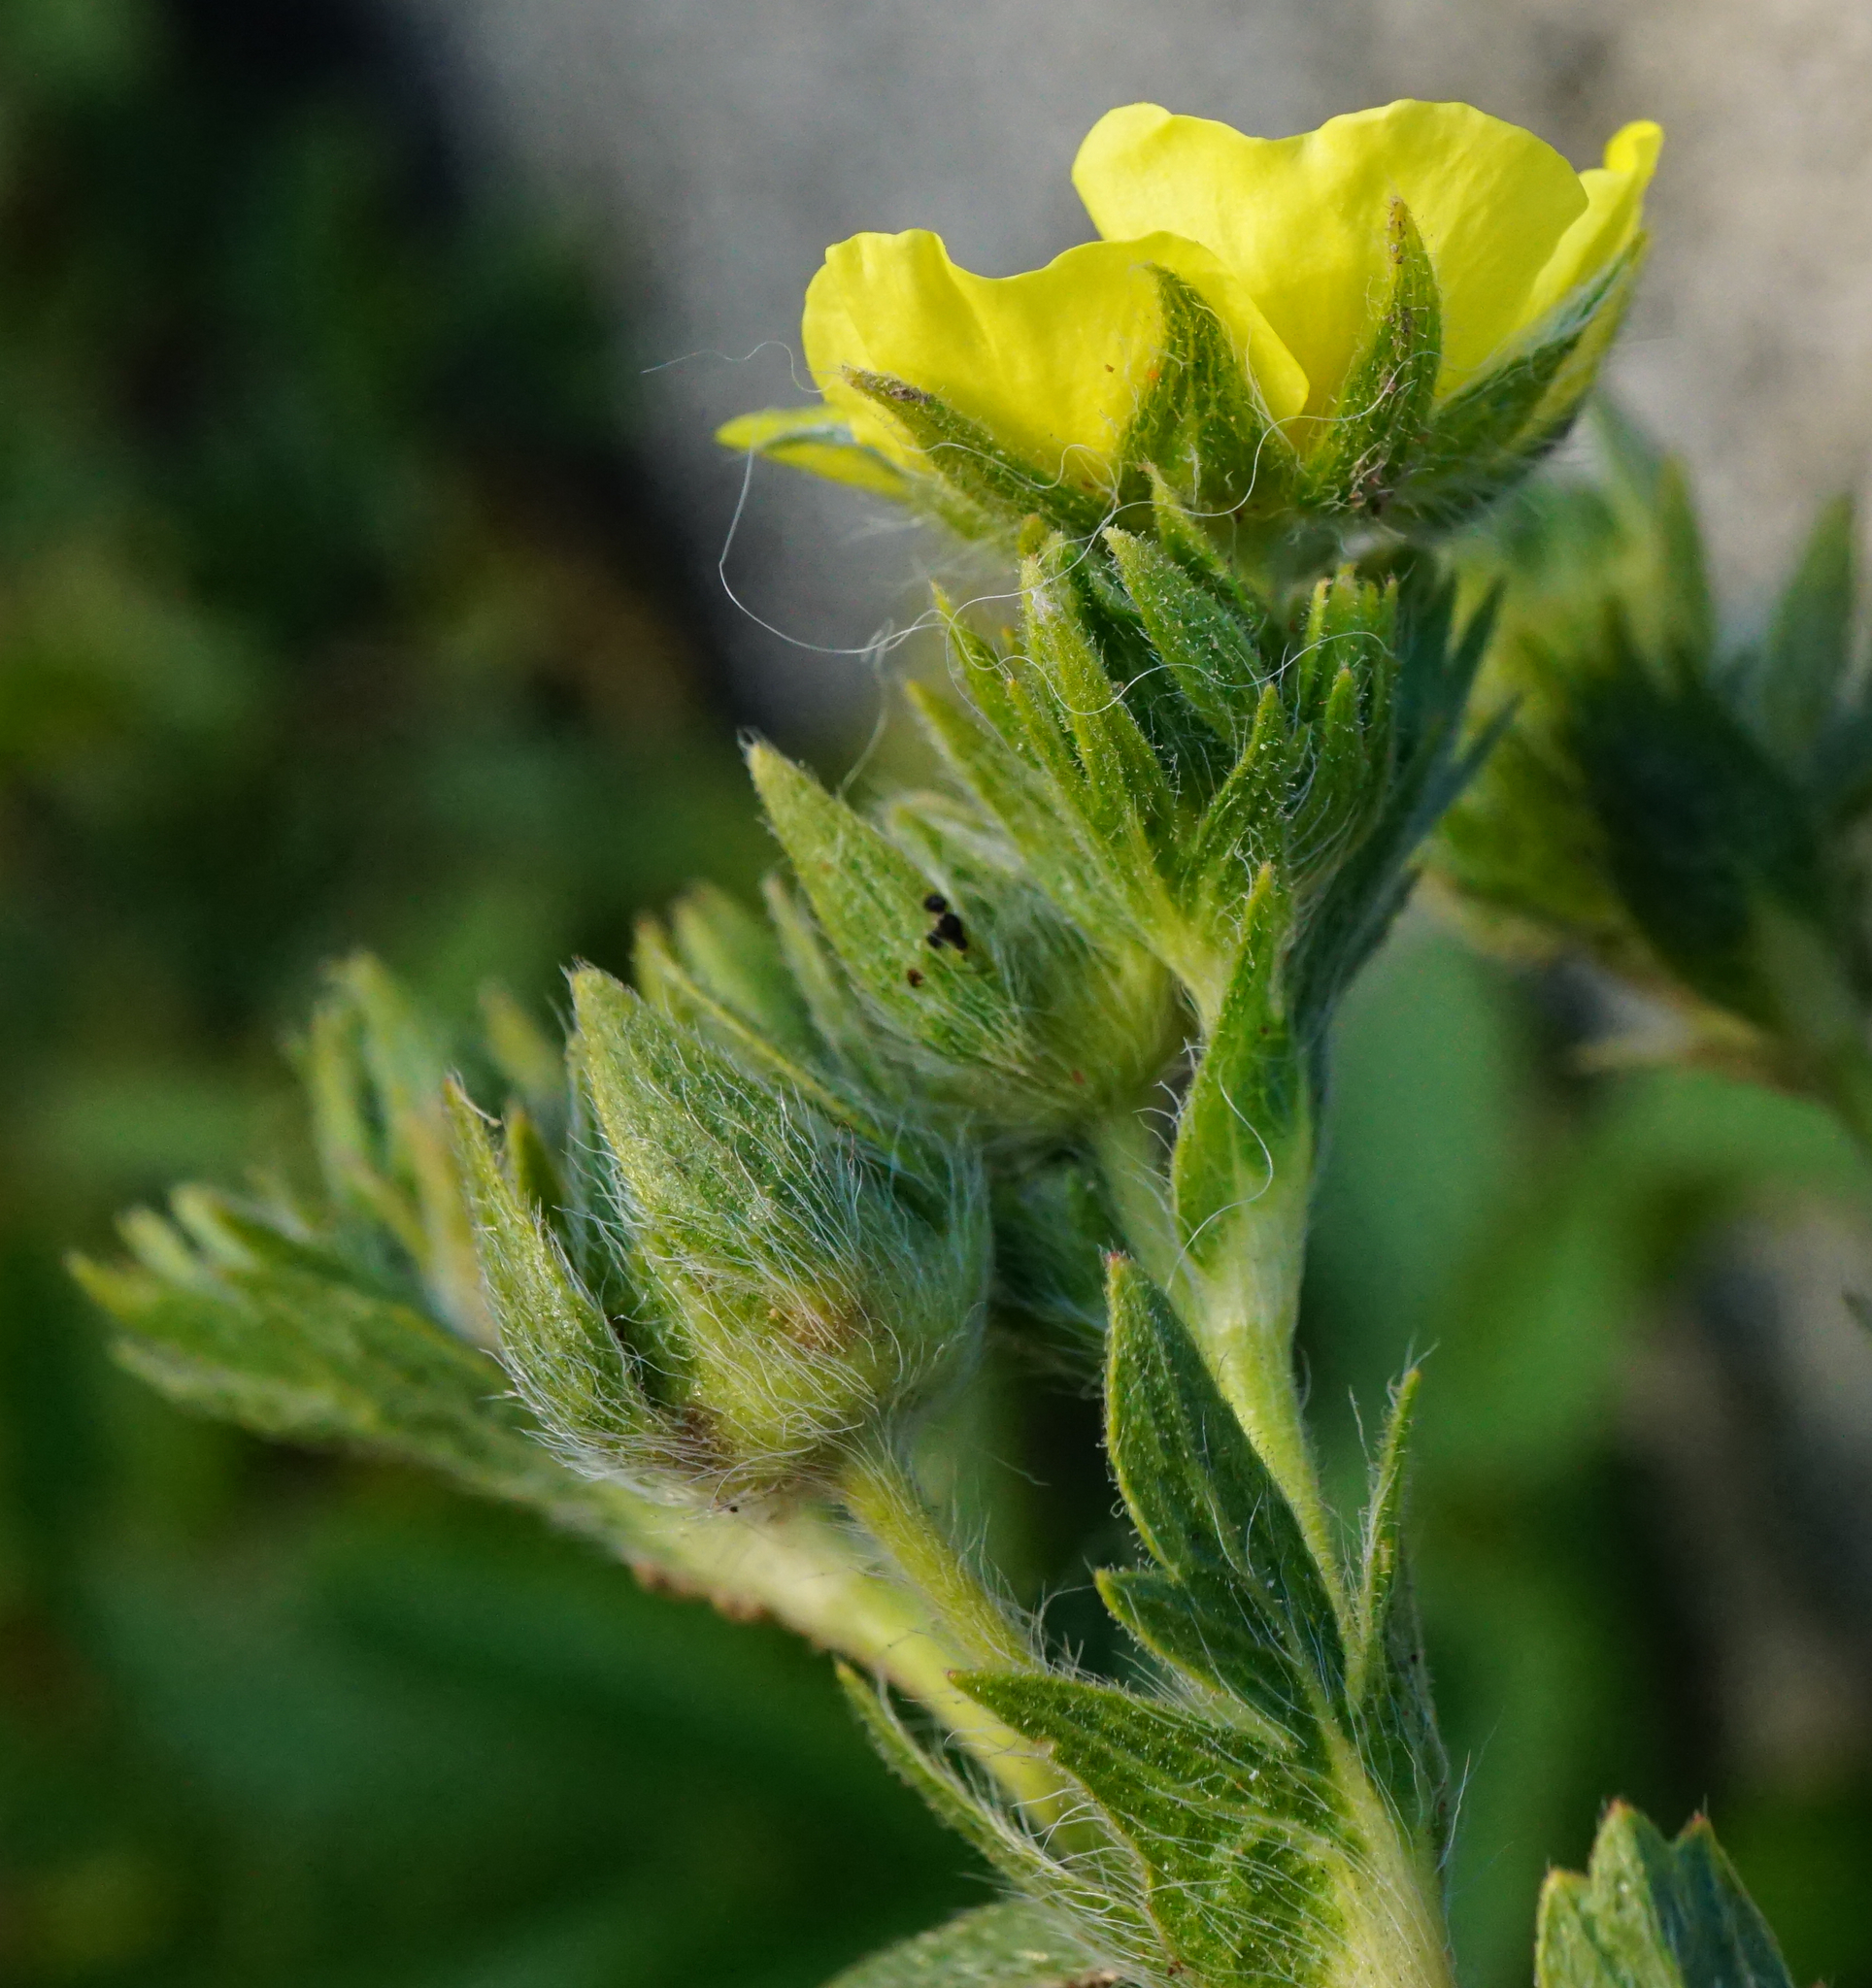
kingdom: Plantae
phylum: Tracheophyta
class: Magnoliopsida
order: Rosales
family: Rosaceae
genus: Potentilla
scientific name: Potentilla recta
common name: Sulphur cinquefoil
